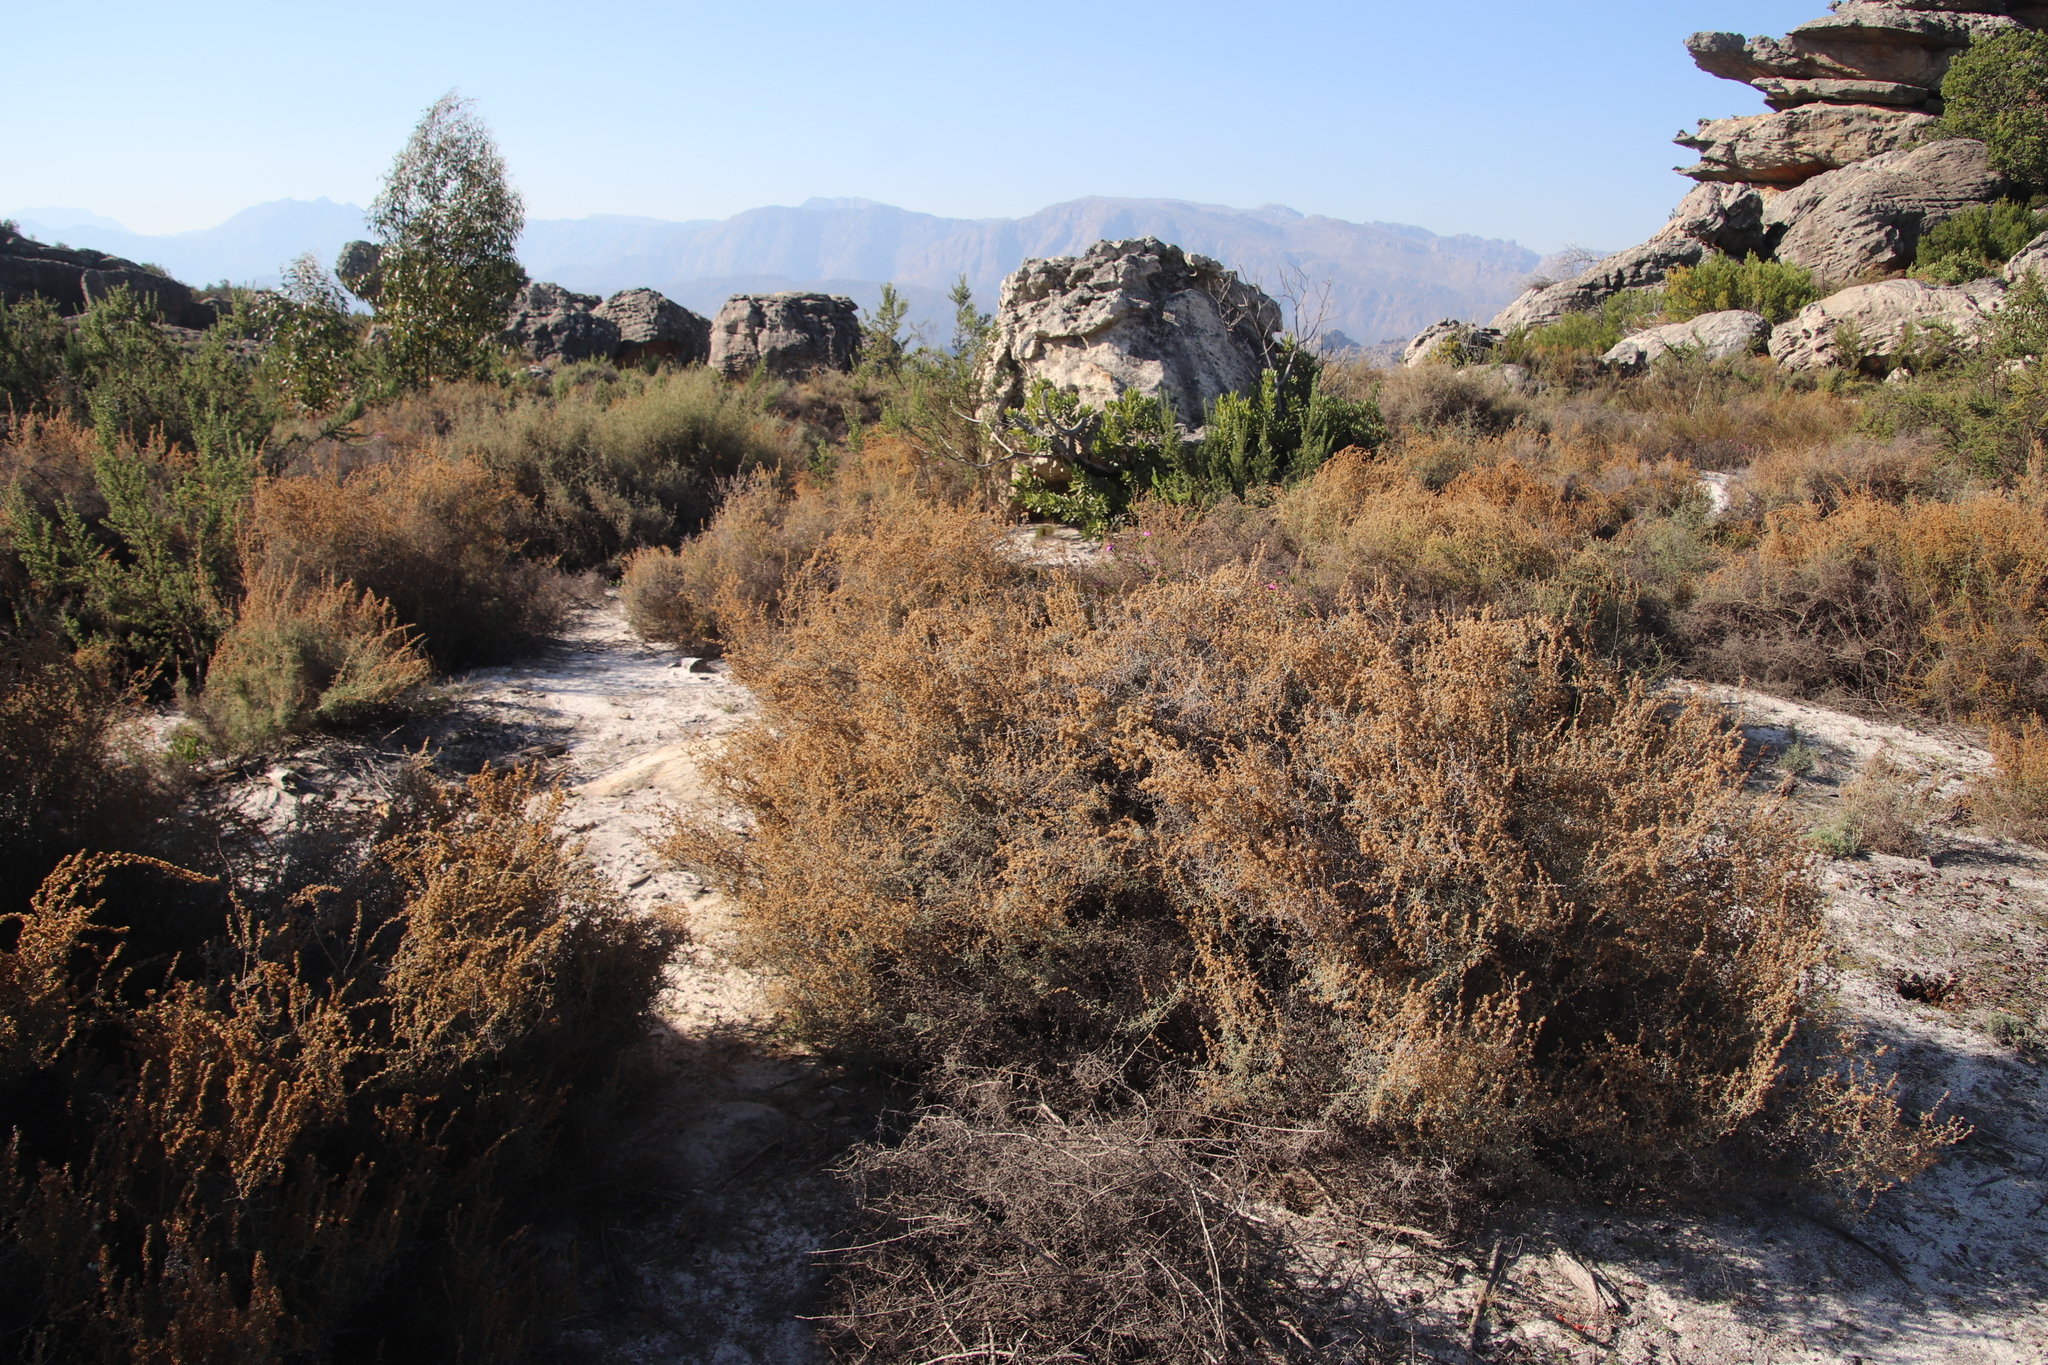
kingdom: Plantae
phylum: Tracheophyta
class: Magnoliopsida
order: Asterales
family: Asteraceae
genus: Seriphium
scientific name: Seriphium plumosum
